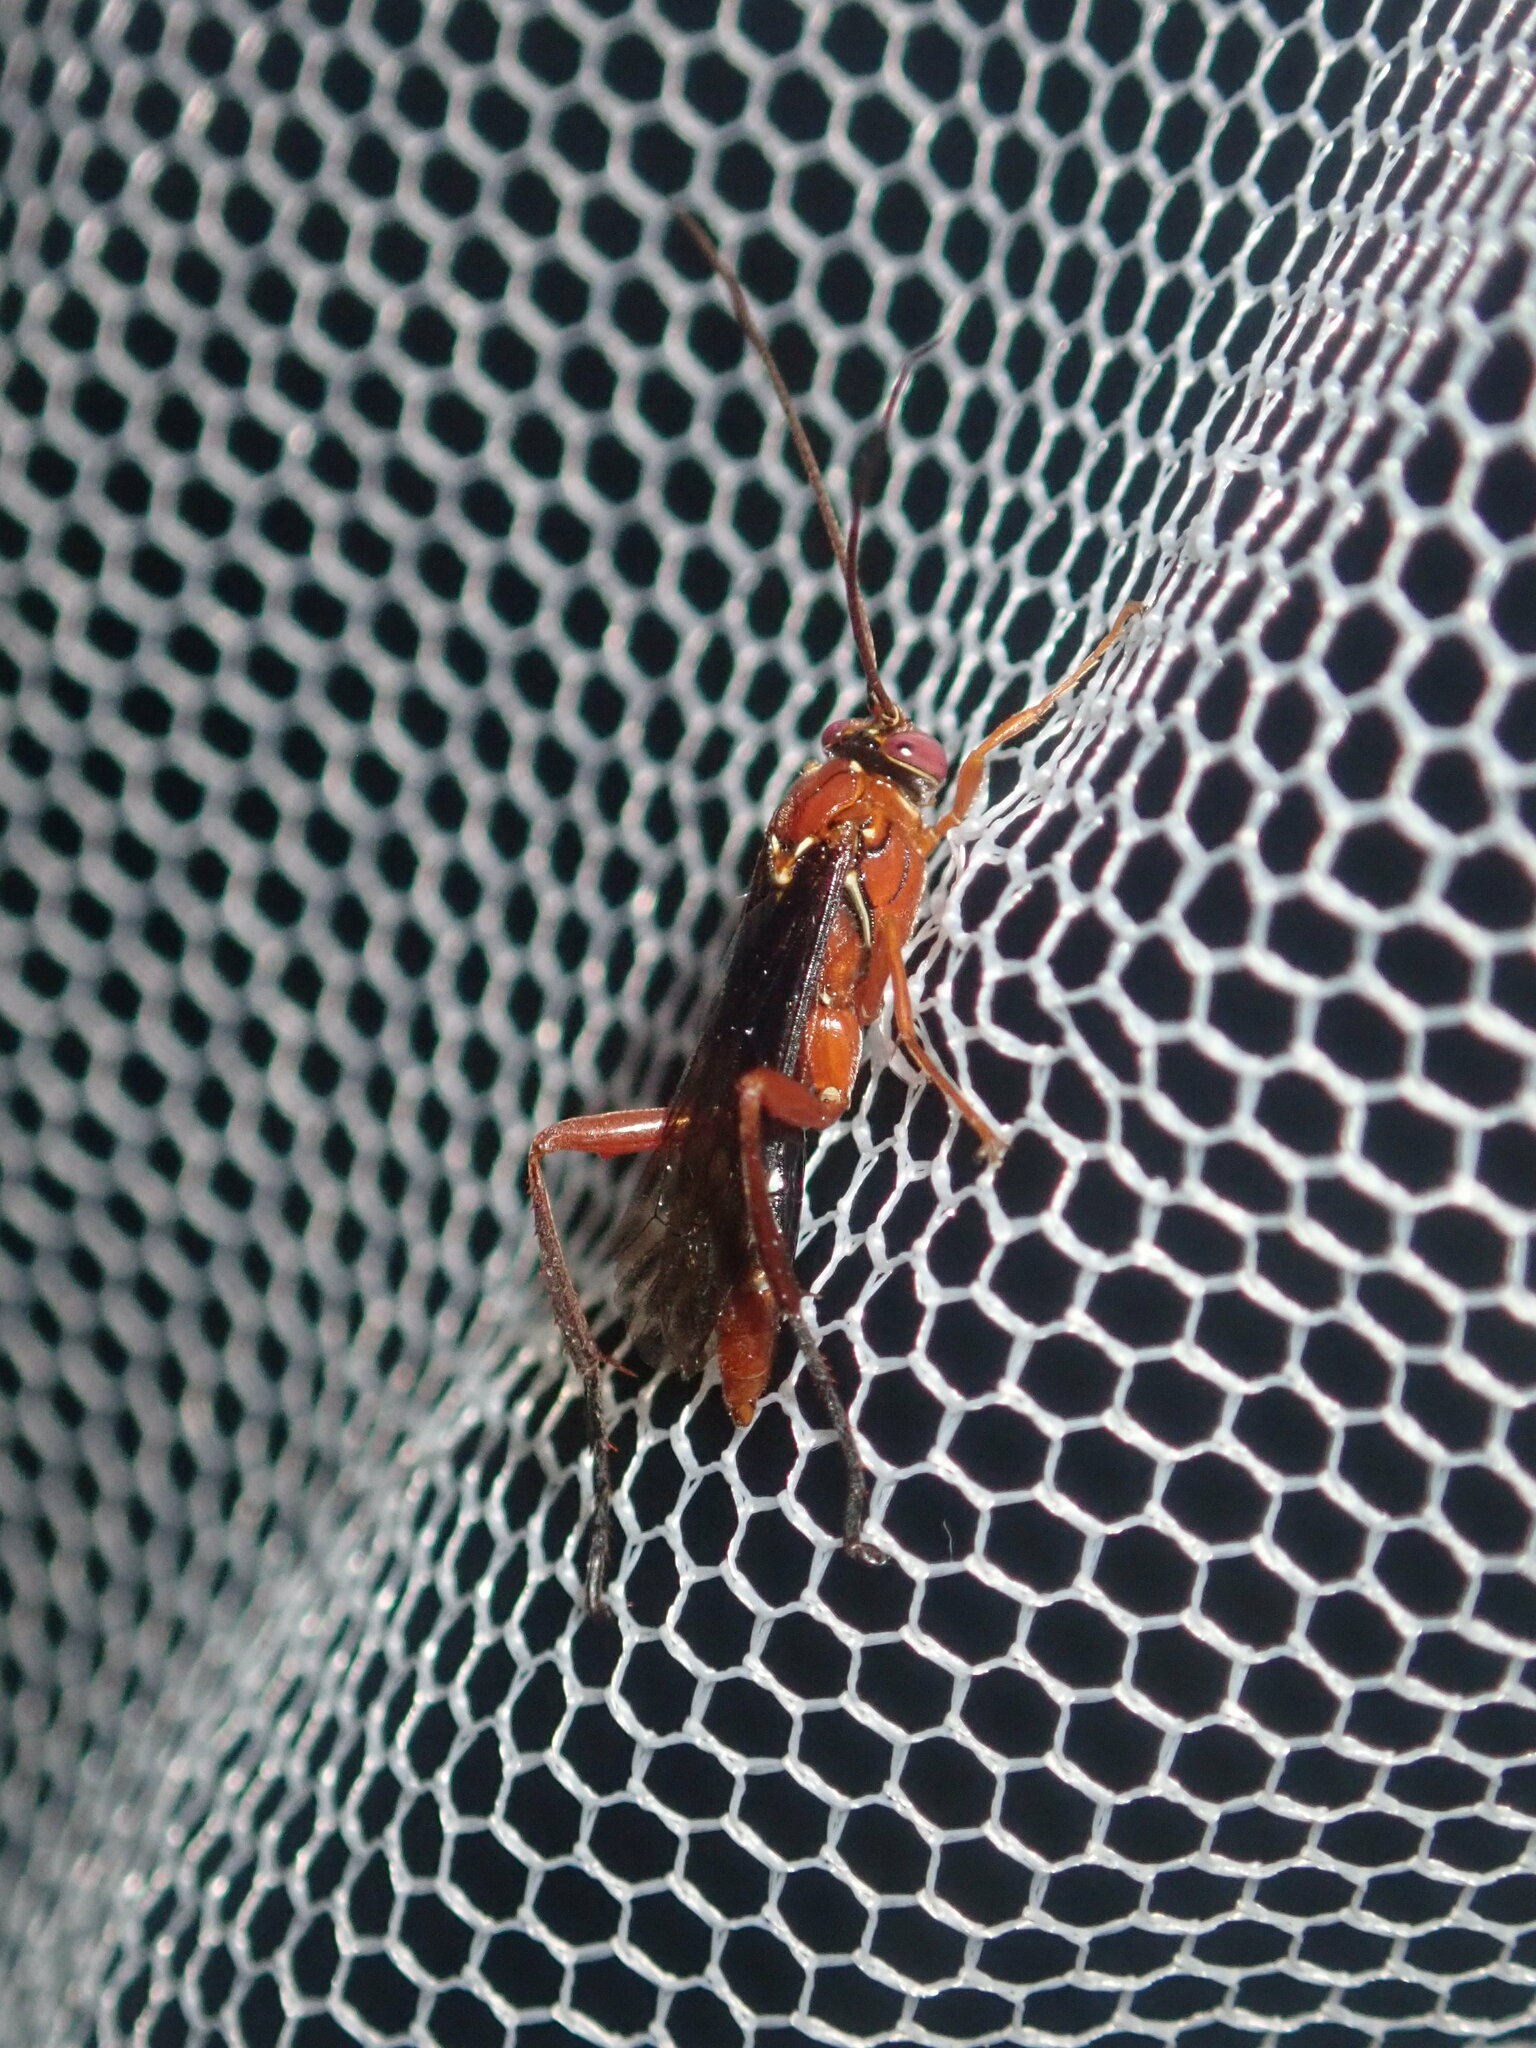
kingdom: Animalia
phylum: Arthropoda
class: Insecta
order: Hymenoptera
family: Ichneumonidae
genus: Lissopimpla
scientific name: Lissopimpla excelsa
